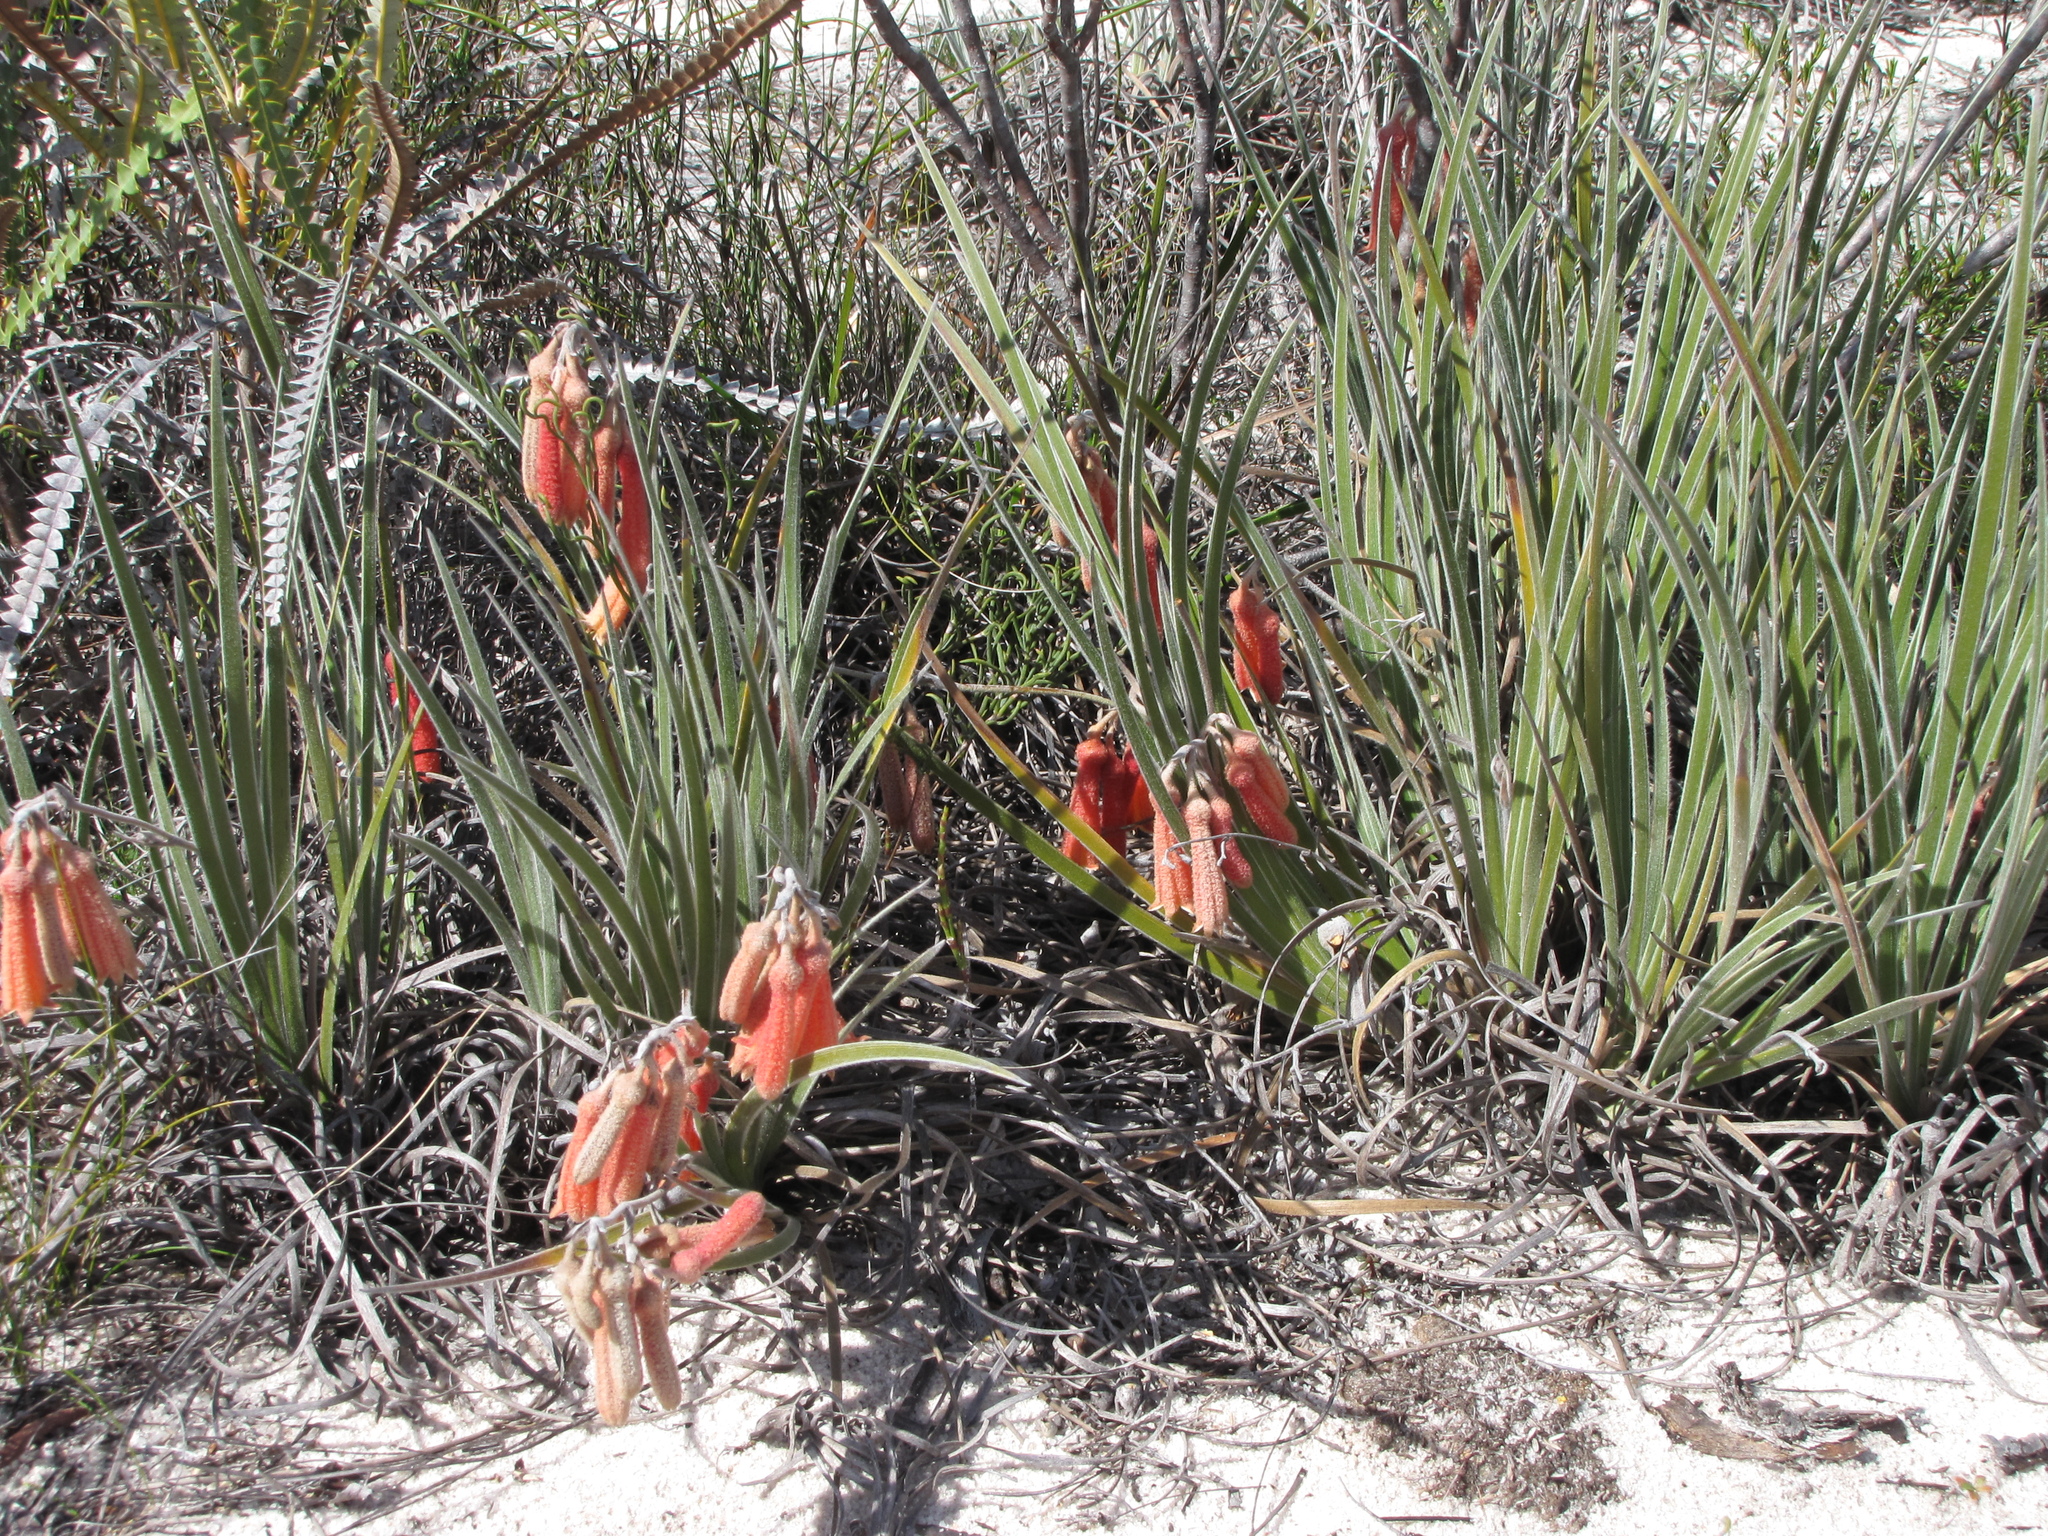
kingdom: Plantae
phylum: Tracheophyta
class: Liliopsida
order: Commelinales
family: Haemodoraceae
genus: Blancoa
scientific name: Blancoa canescens
